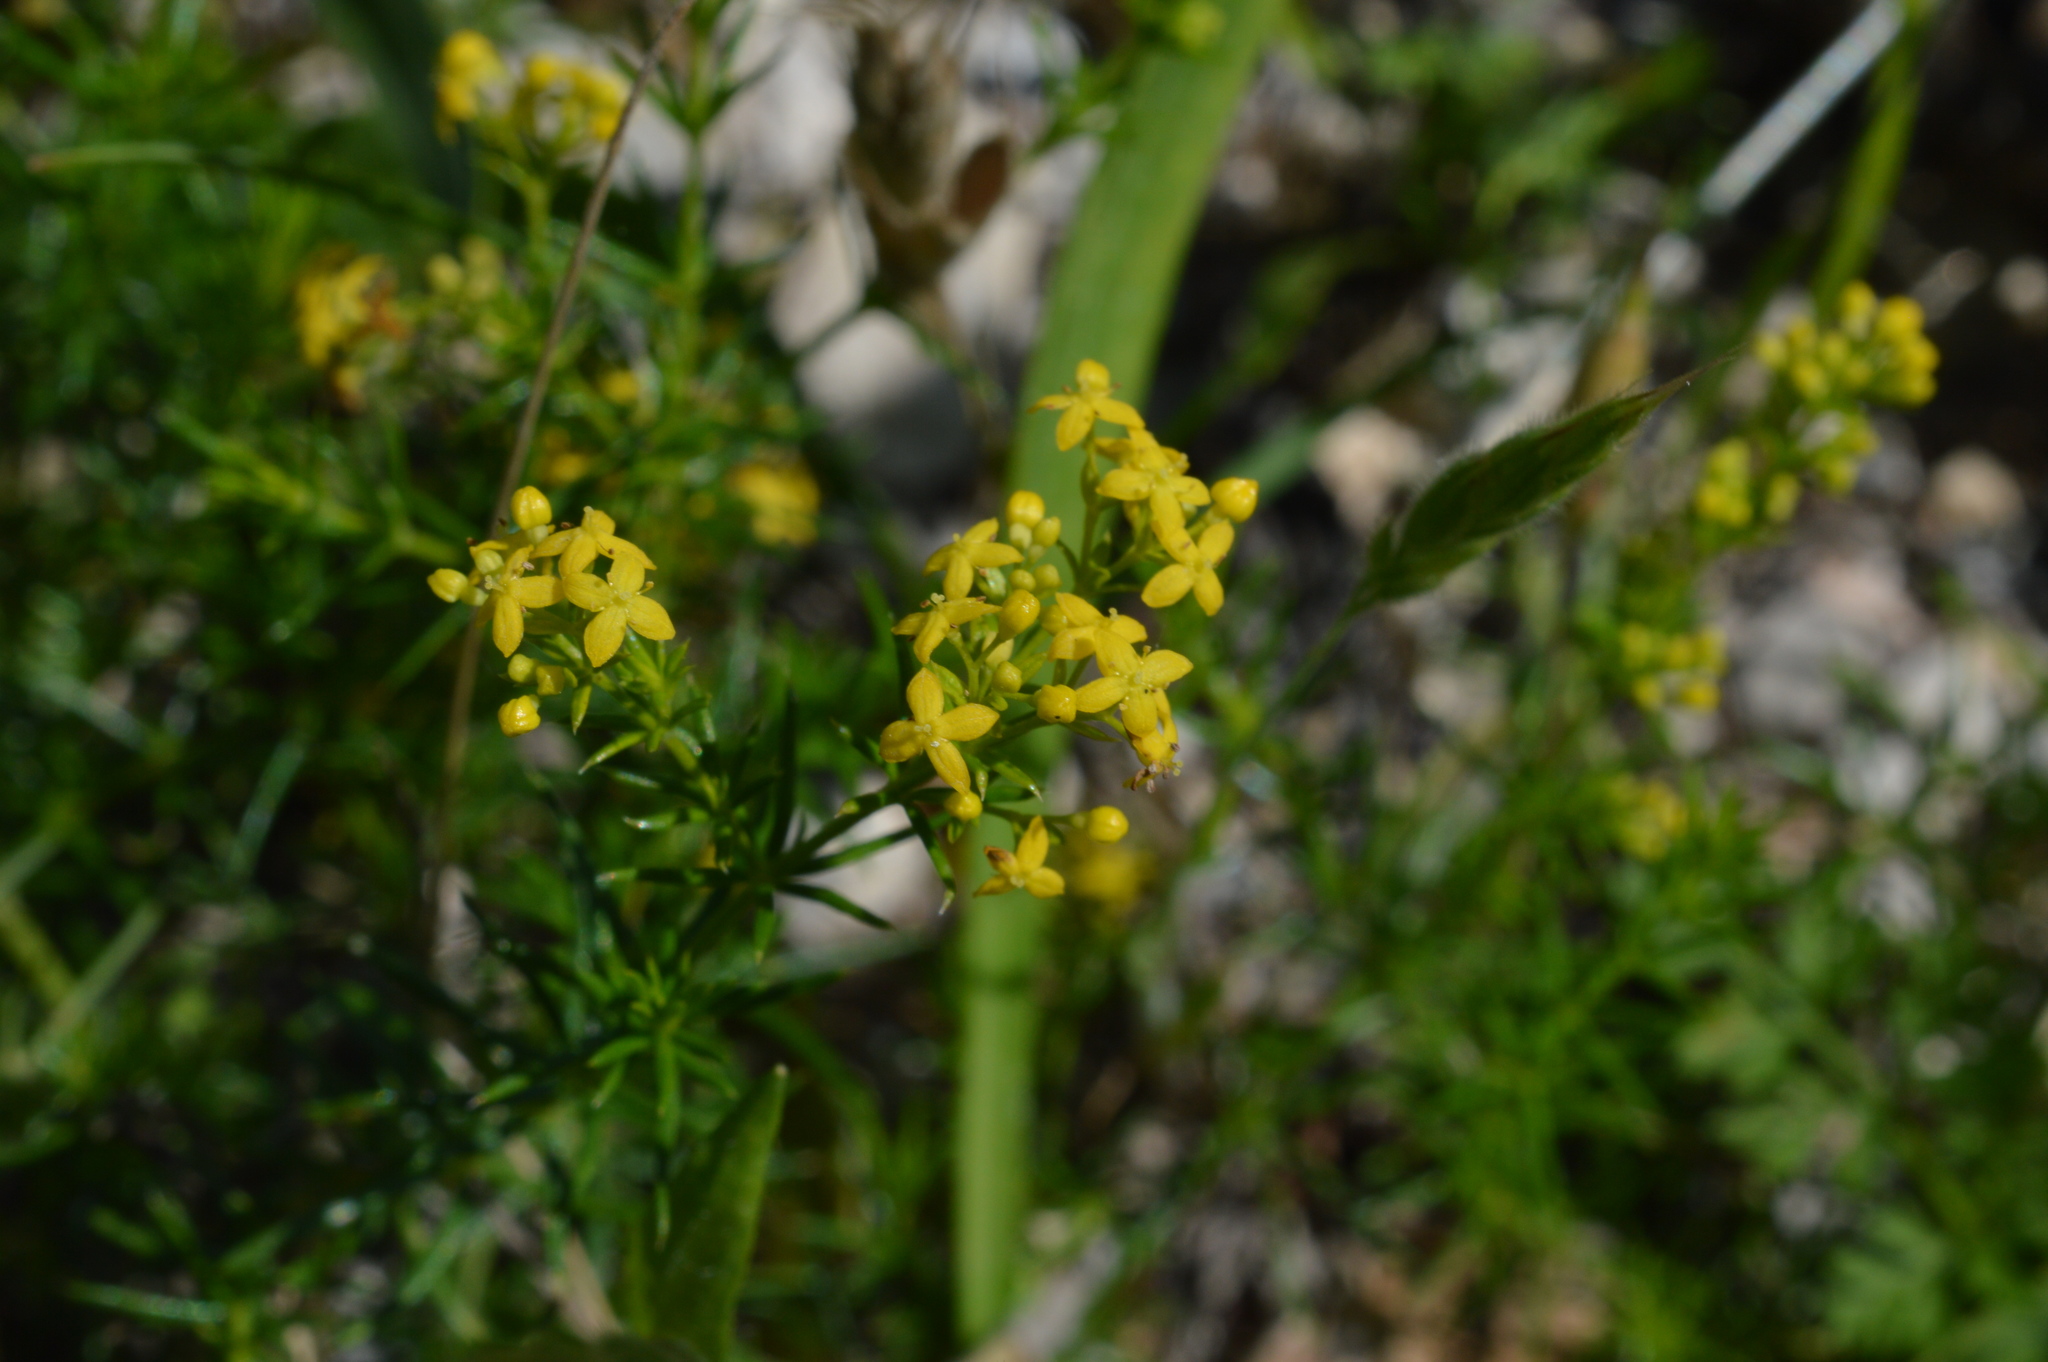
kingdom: Plantae
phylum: Tracheophyta
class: Magnoliopsida
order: Gentianales
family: Rubiaceae
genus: Galium
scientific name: Galium verum
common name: Lady's bedstraw
